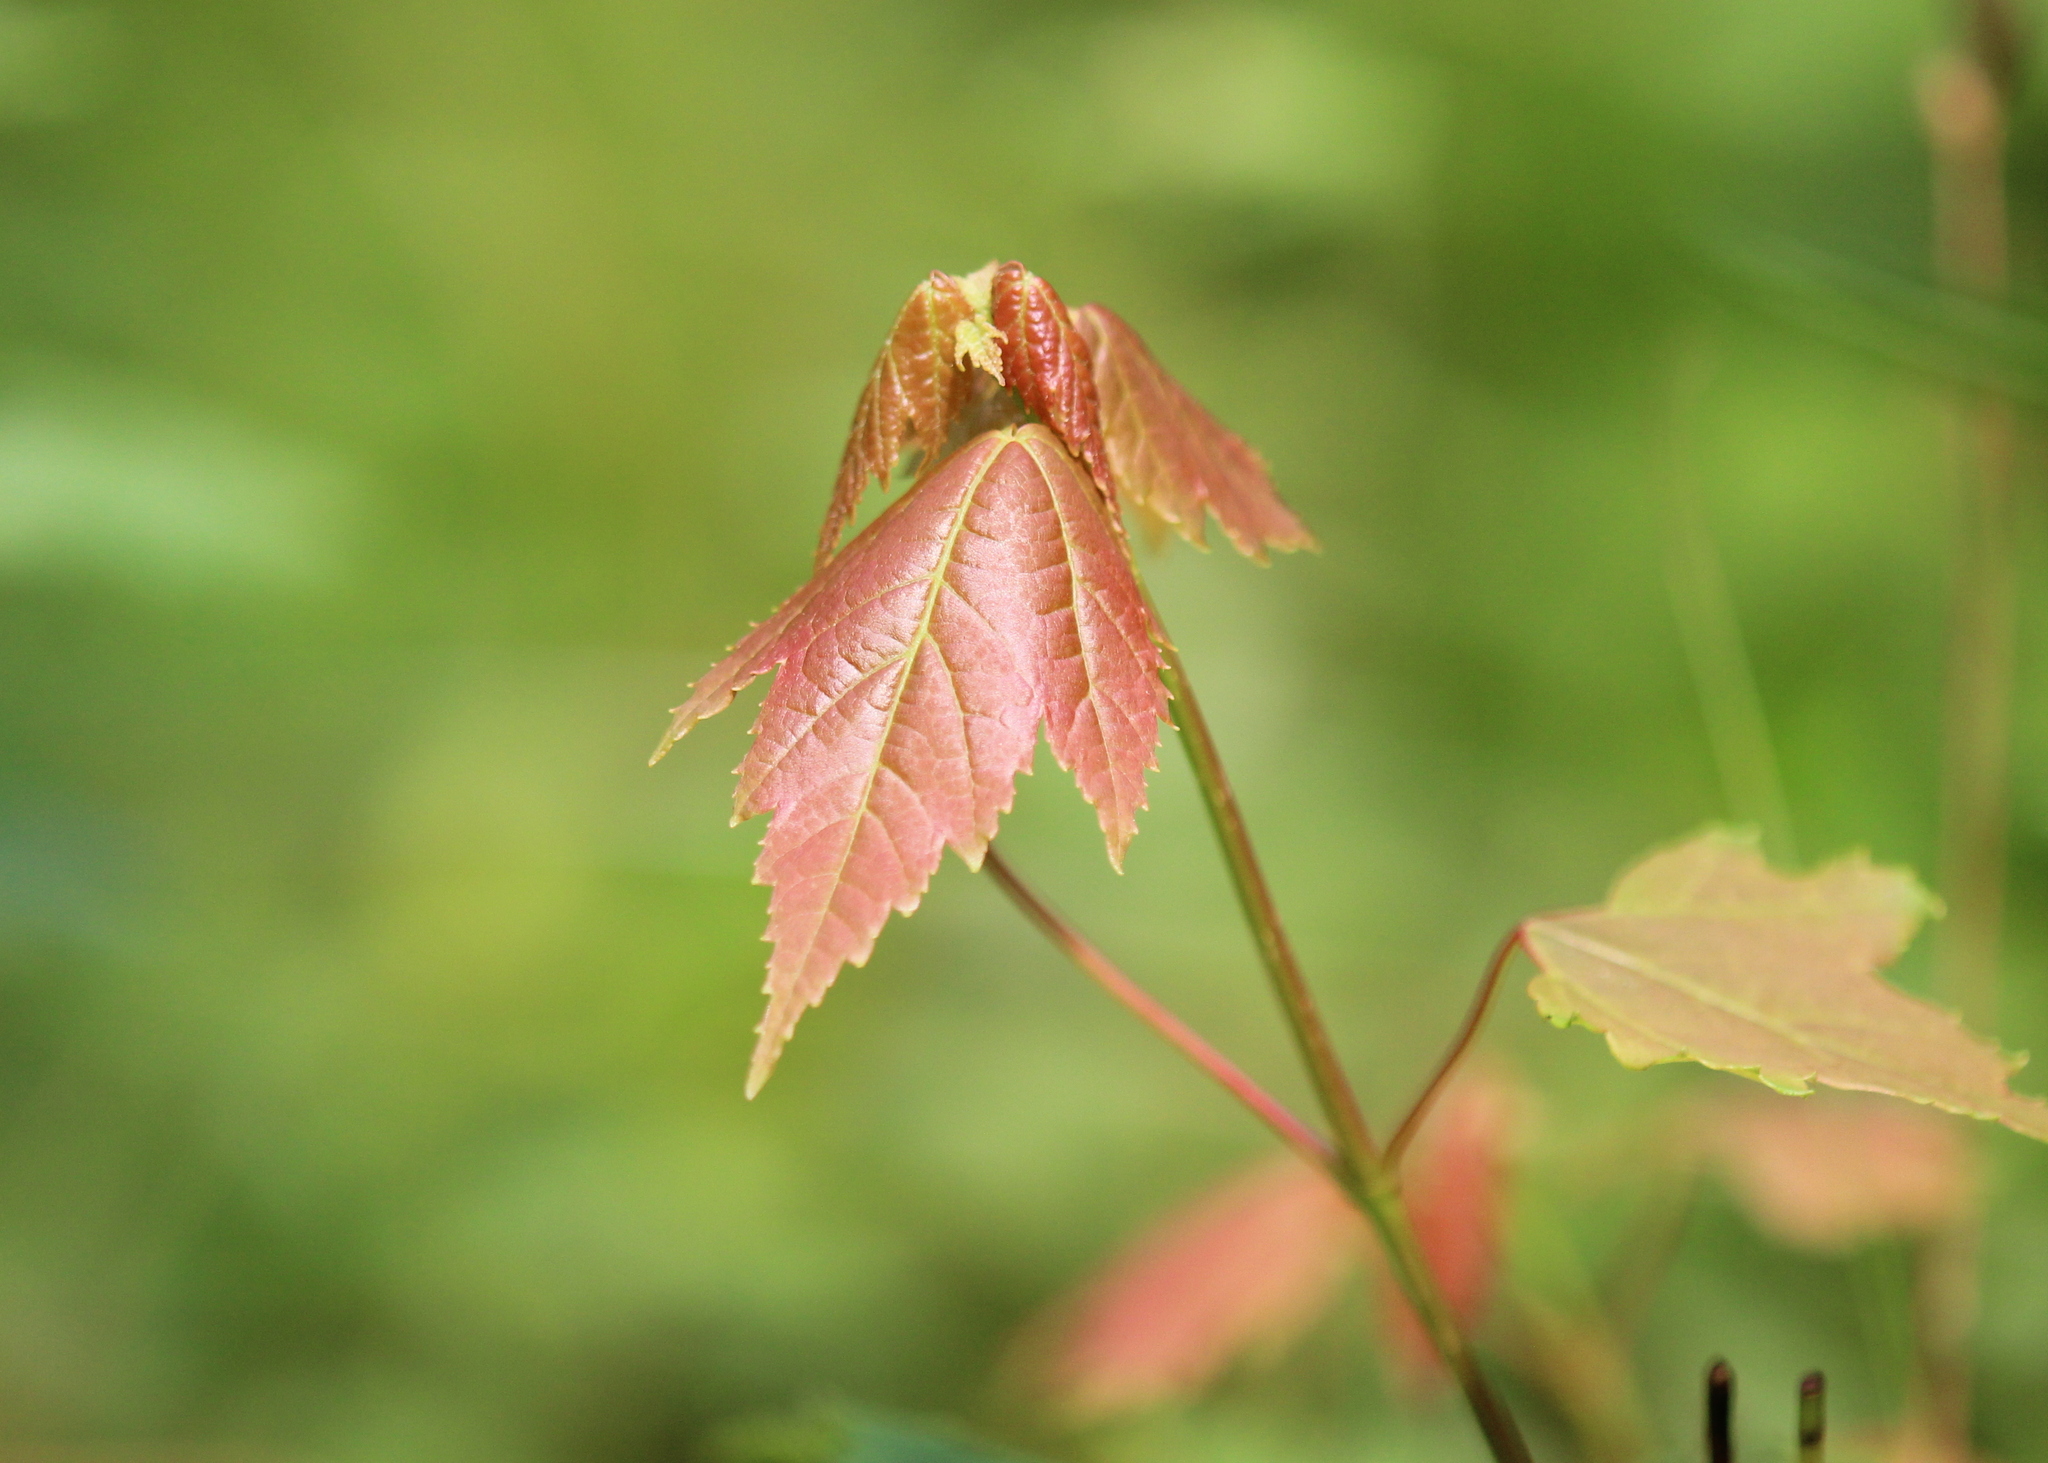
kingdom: Plantae
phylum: Tracheophyta
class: Magnoliopsida
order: Sapindales
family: Sapindaceae
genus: Acer
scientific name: Acer rubrum
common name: Red maple
